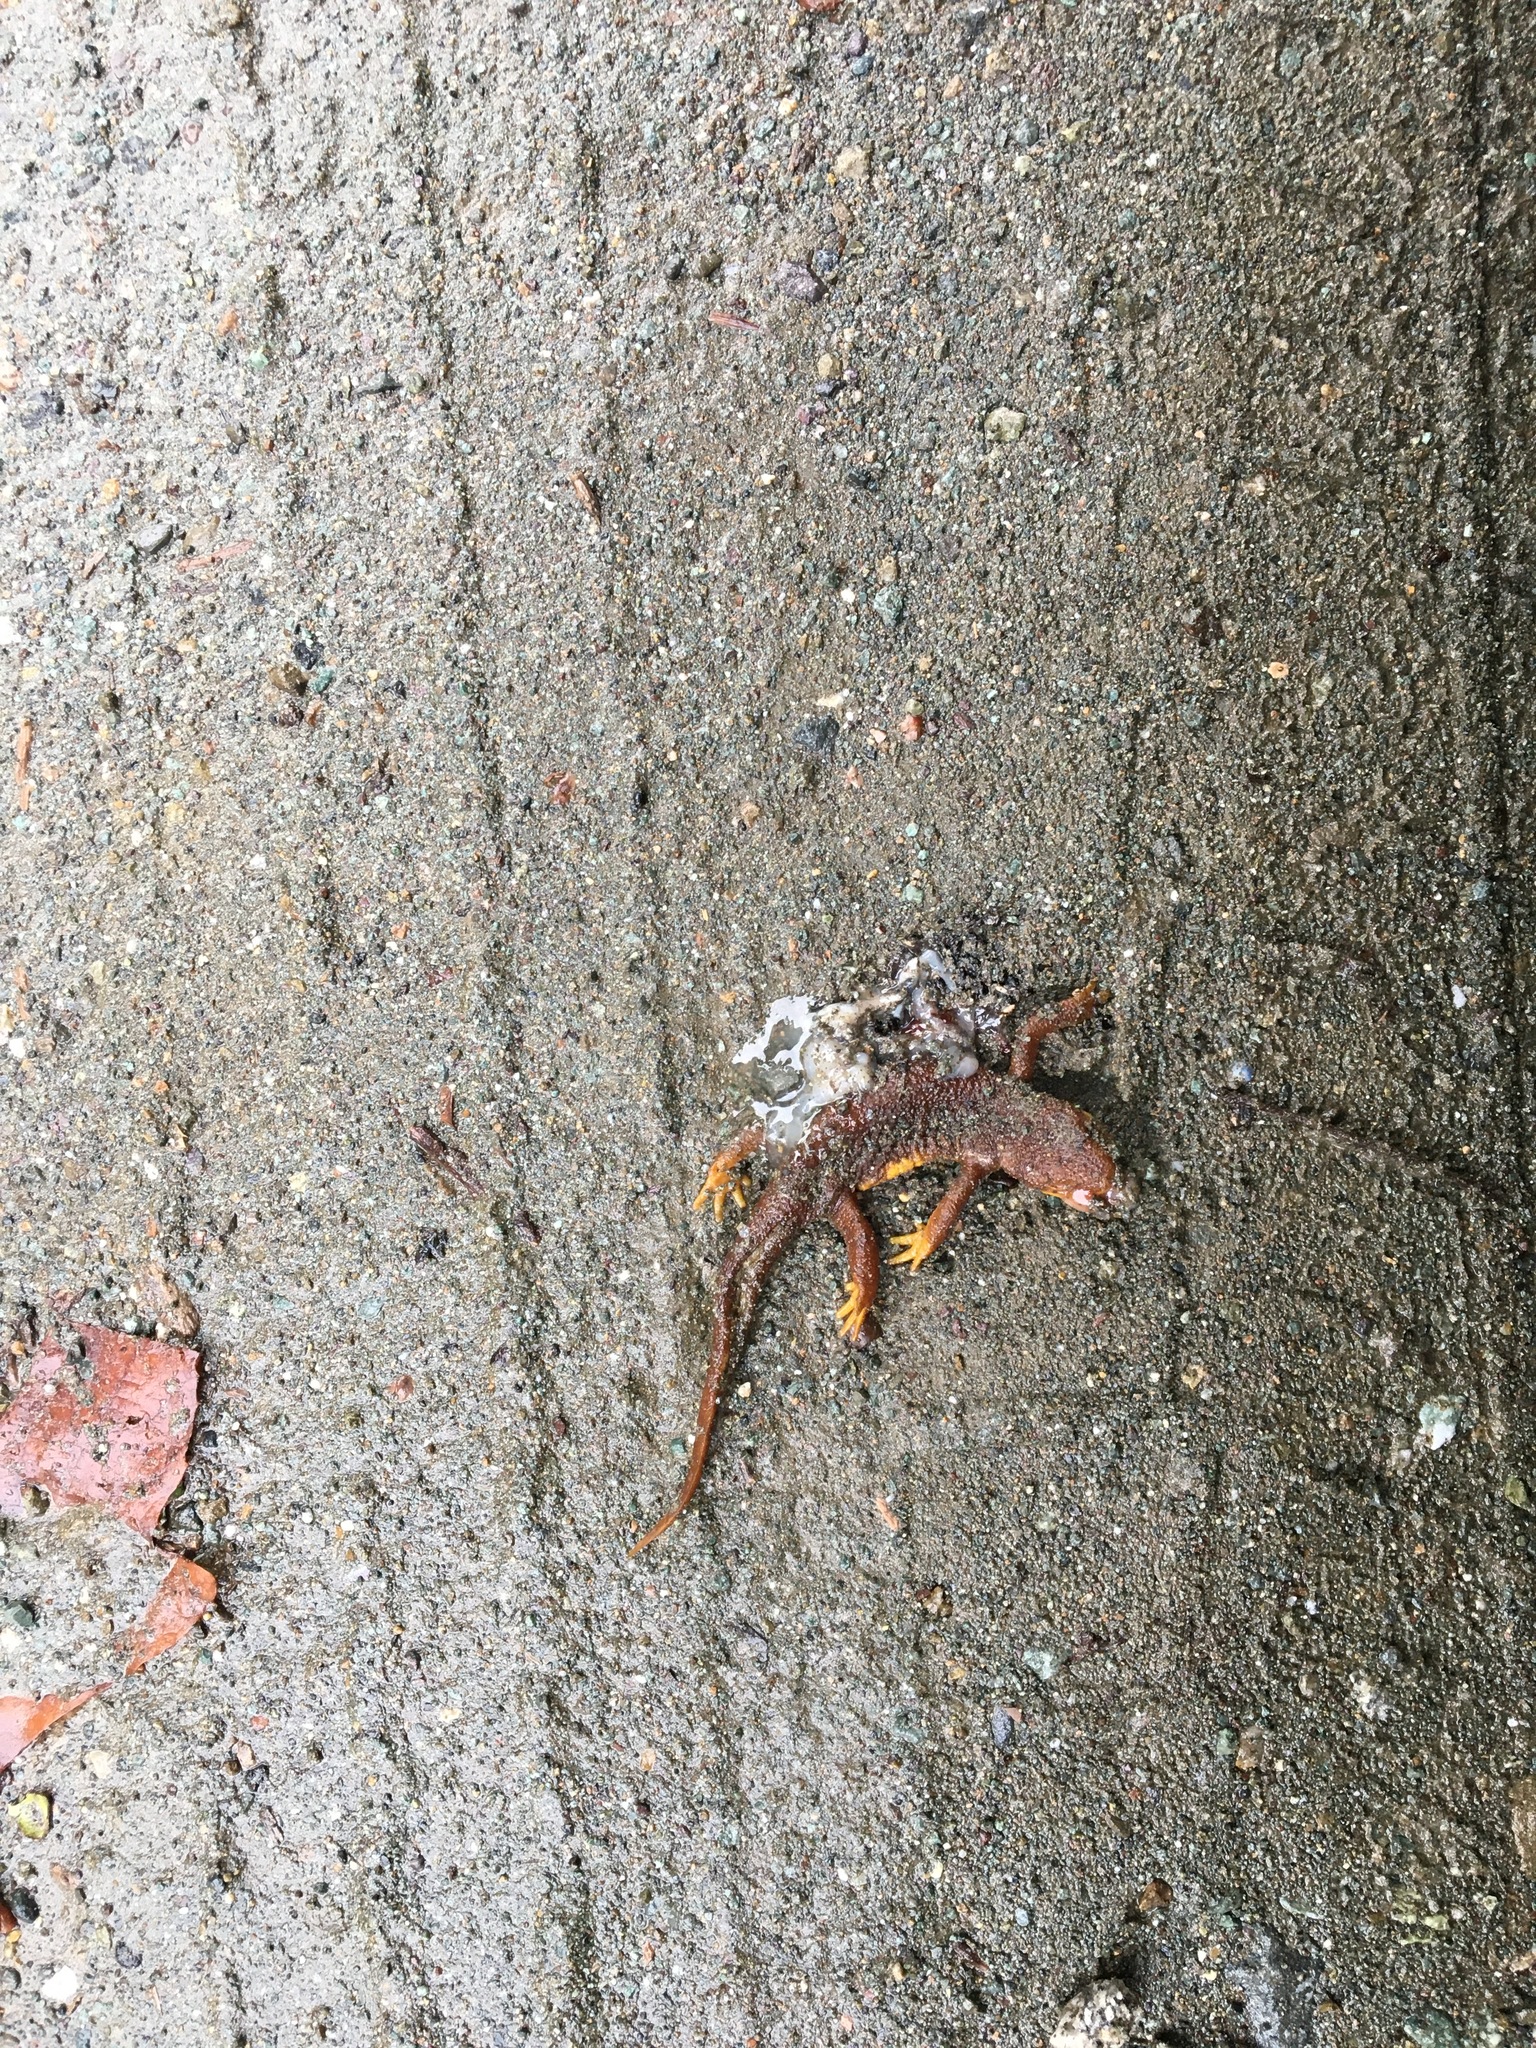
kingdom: Animalia
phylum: Chordata
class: Amphibia
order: Caudata
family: Salamandridae
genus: Taricha
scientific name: Taricha torosa
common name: California newt
